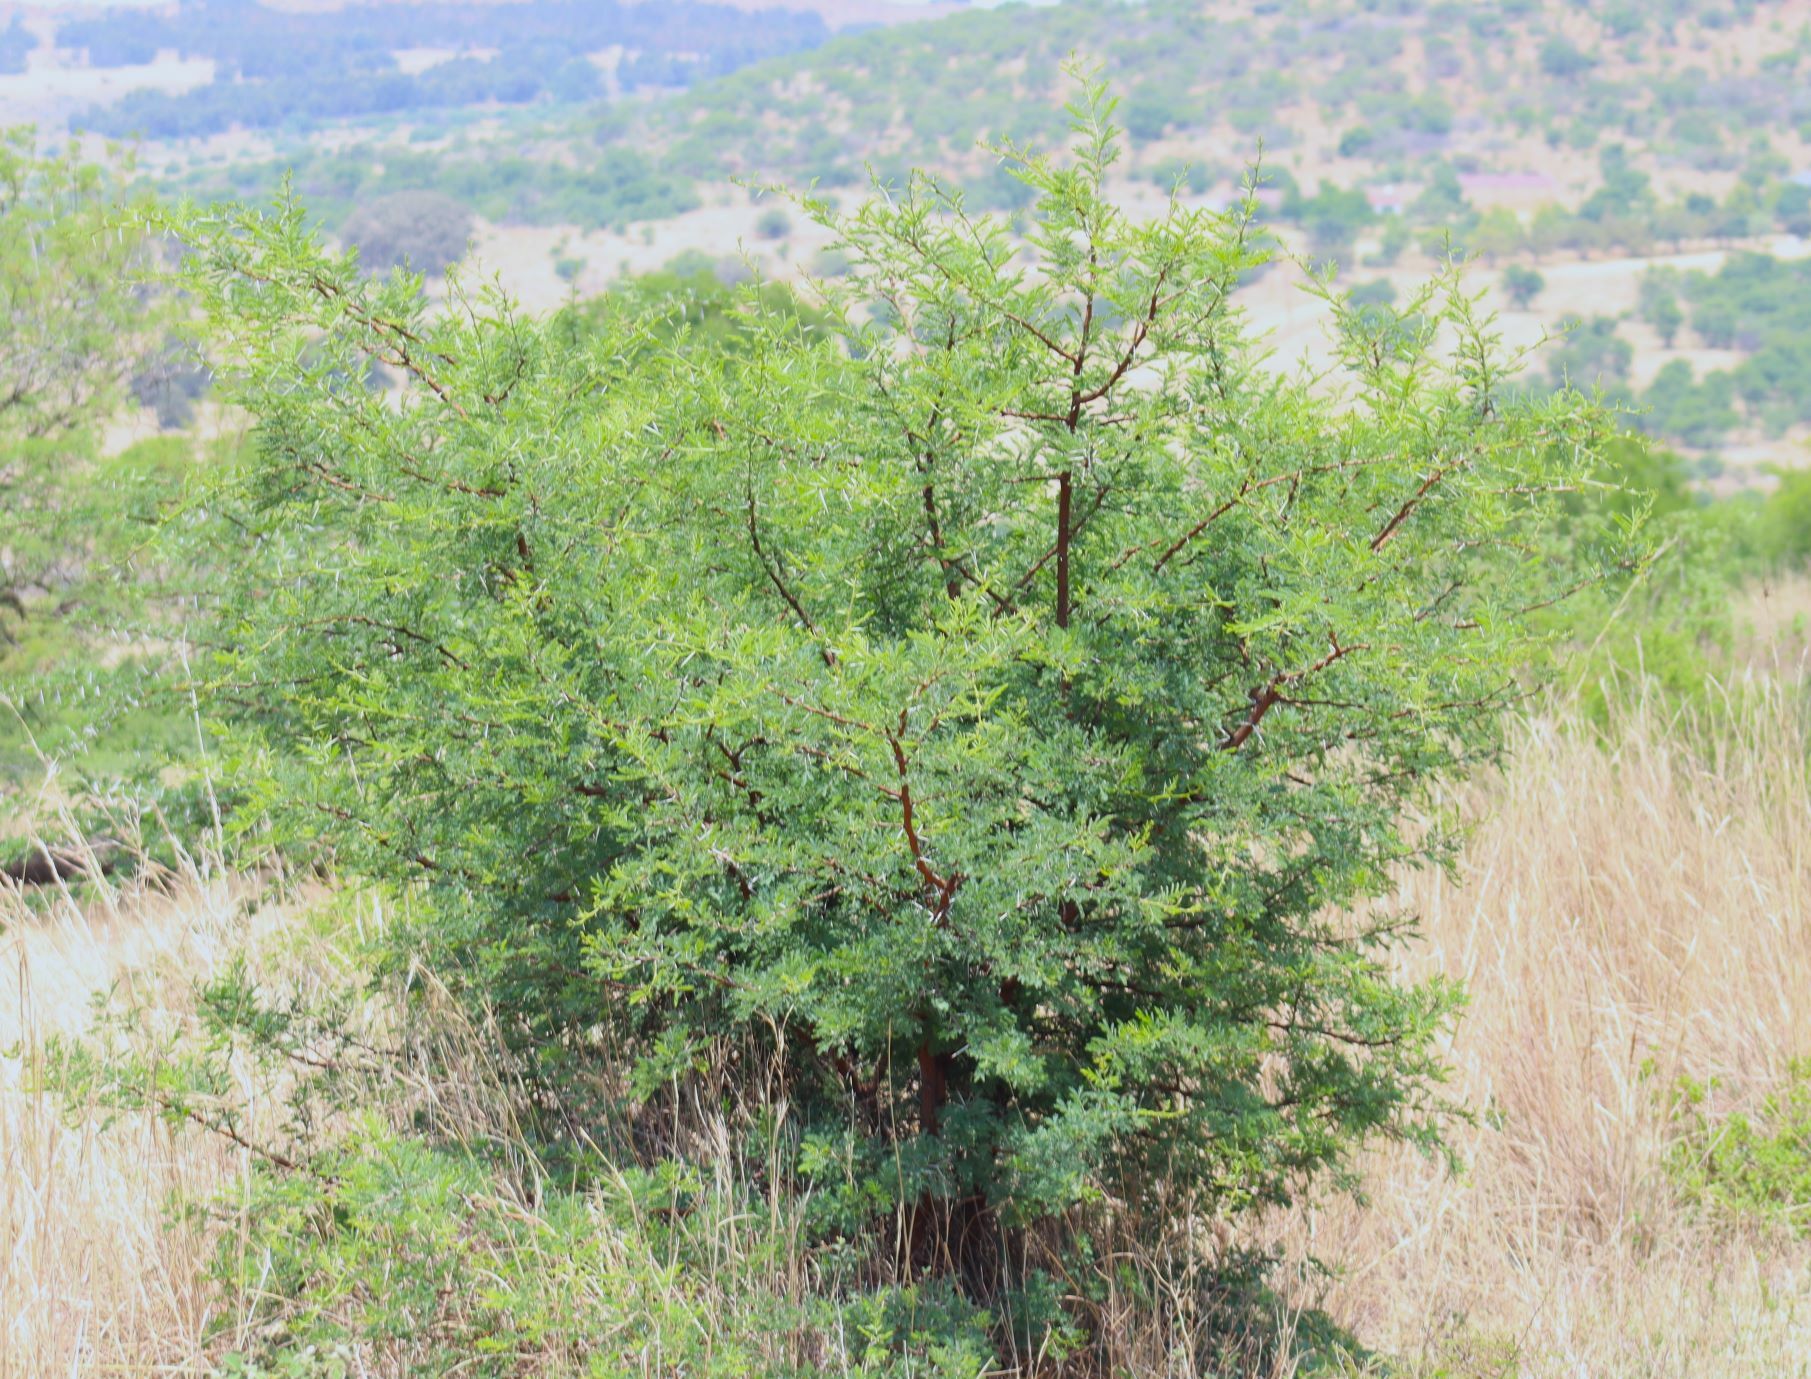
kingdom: Plantae
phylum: Tracheophyta
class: Magnoliopsida
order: Fabales
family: Fabaceae
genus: Vachellia
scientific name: Vachellia karroo
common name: Sweet thorn
